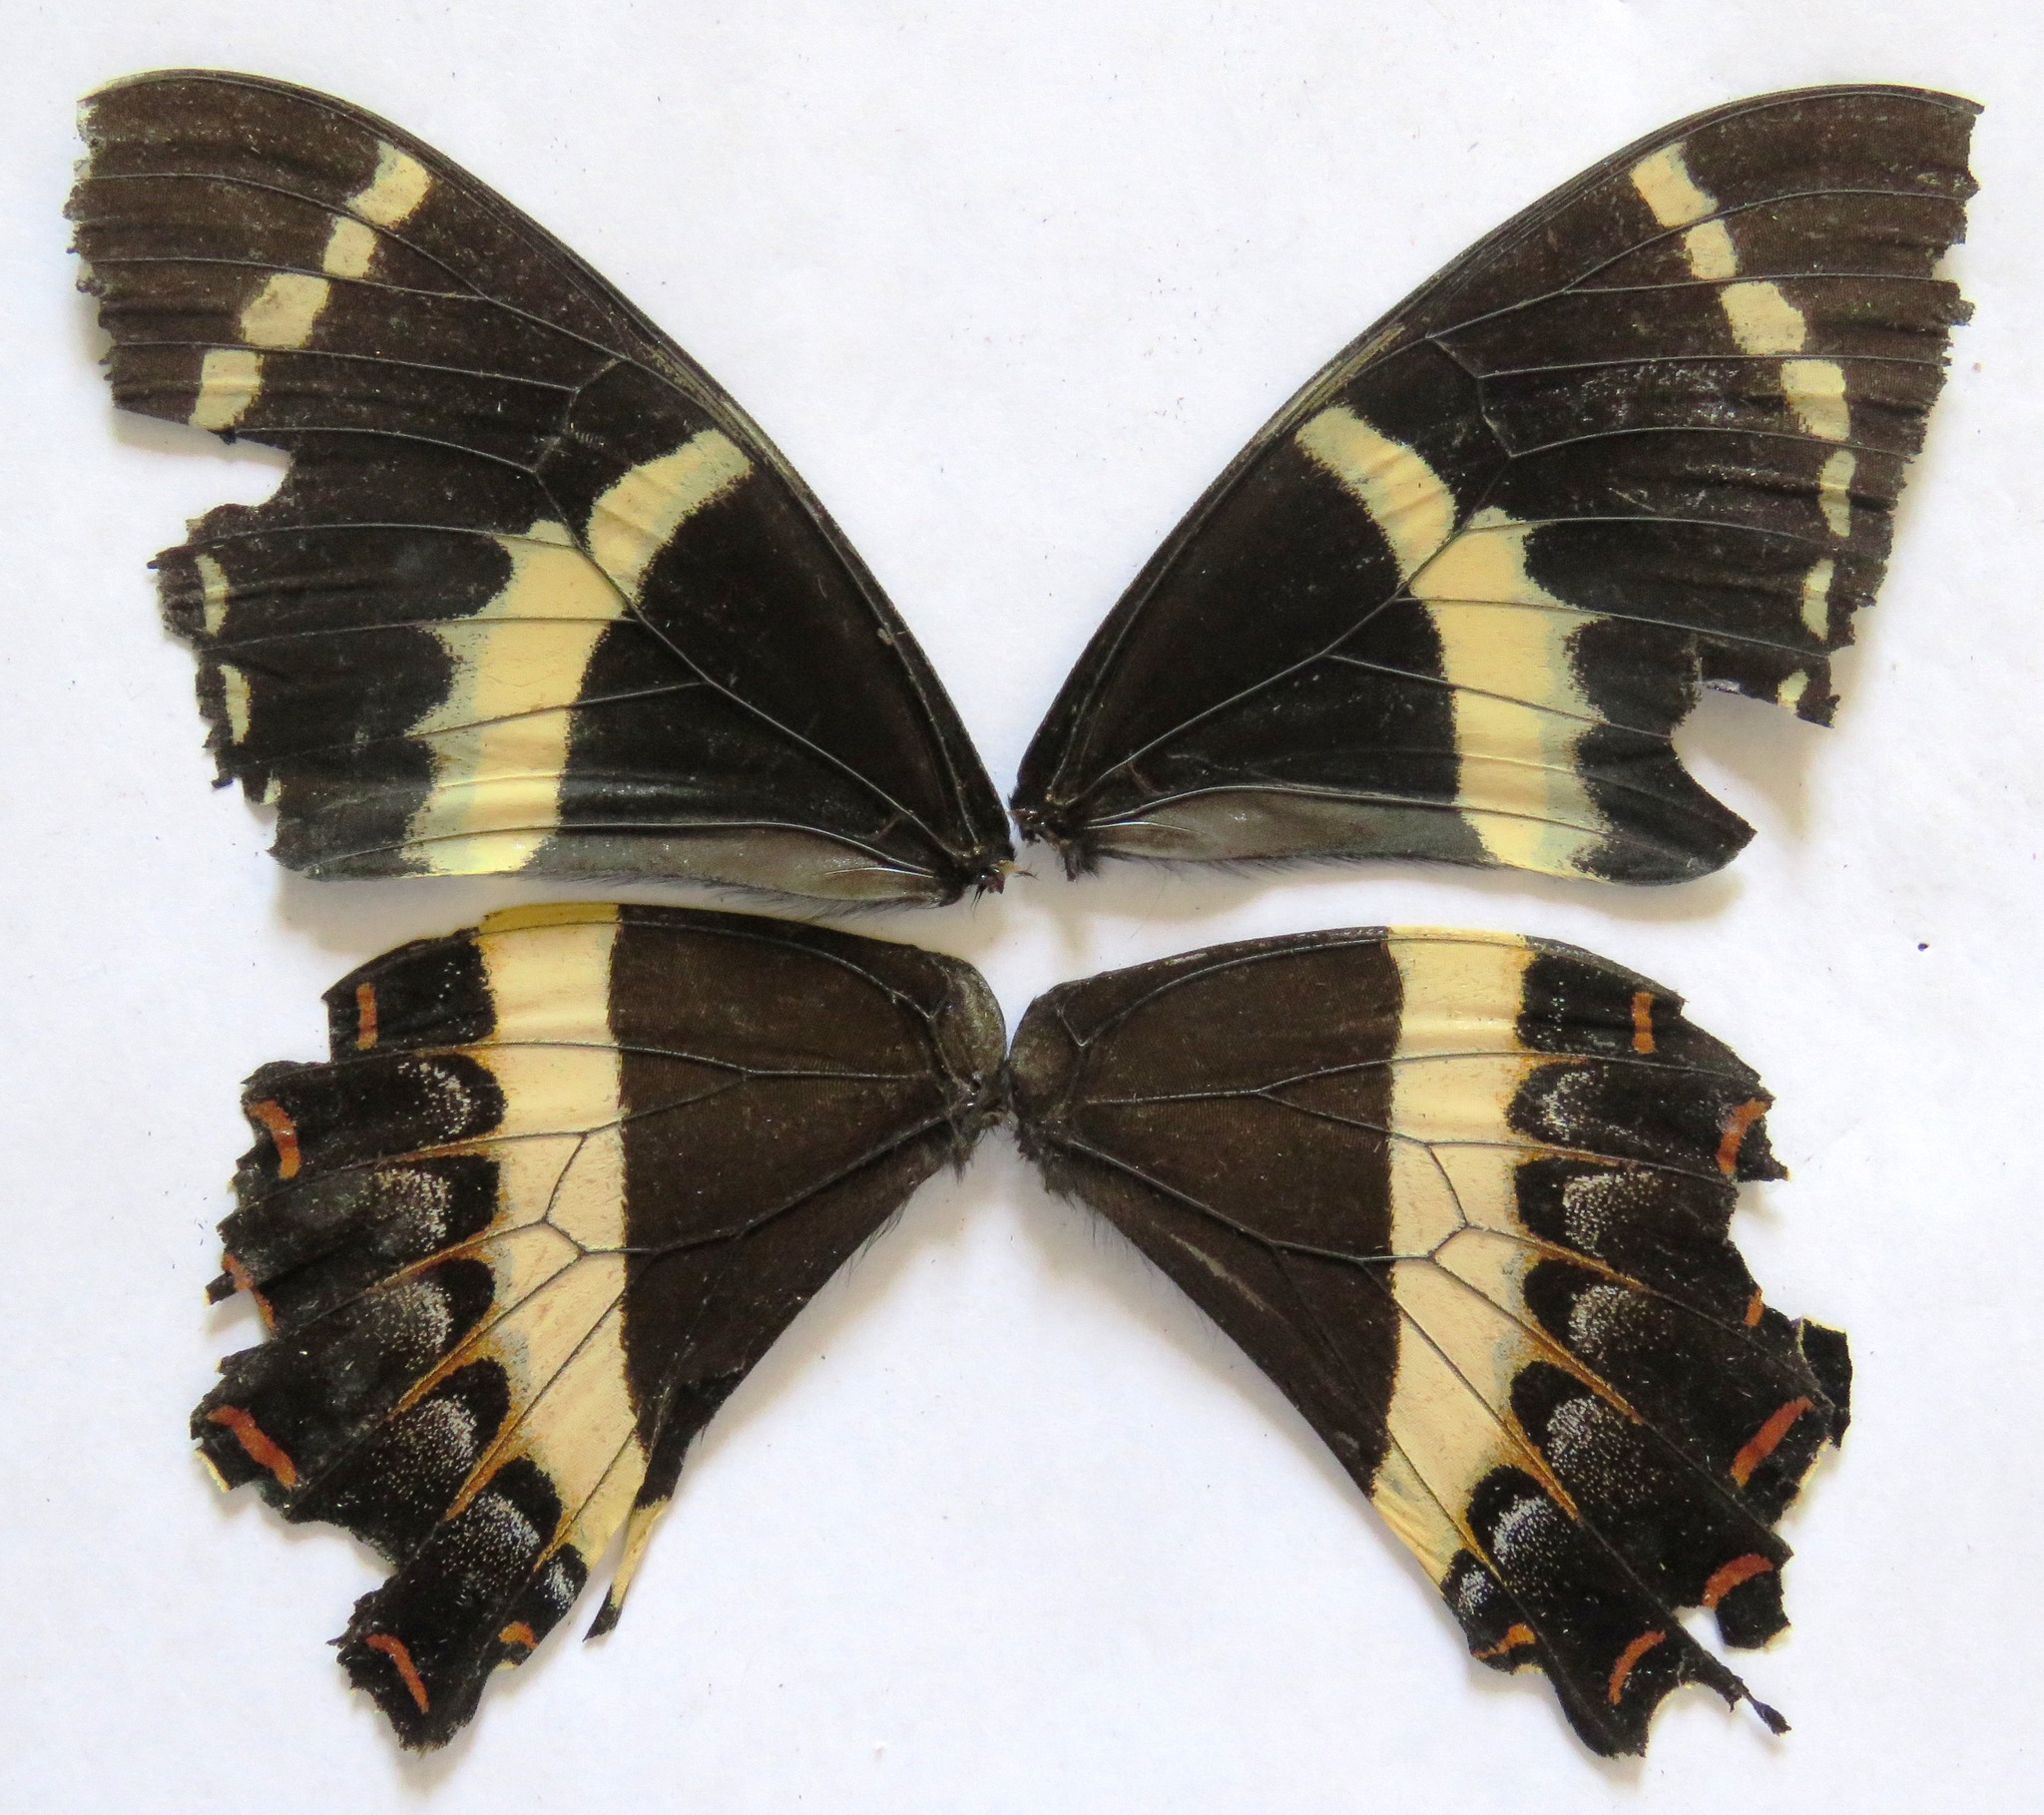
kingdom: Animalia
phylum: Arthropoda
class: Insecta
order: Lepidoptera
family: Papilionidae
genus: Papilio
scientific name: Papilio garamas
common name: Magnificent swallowtail
